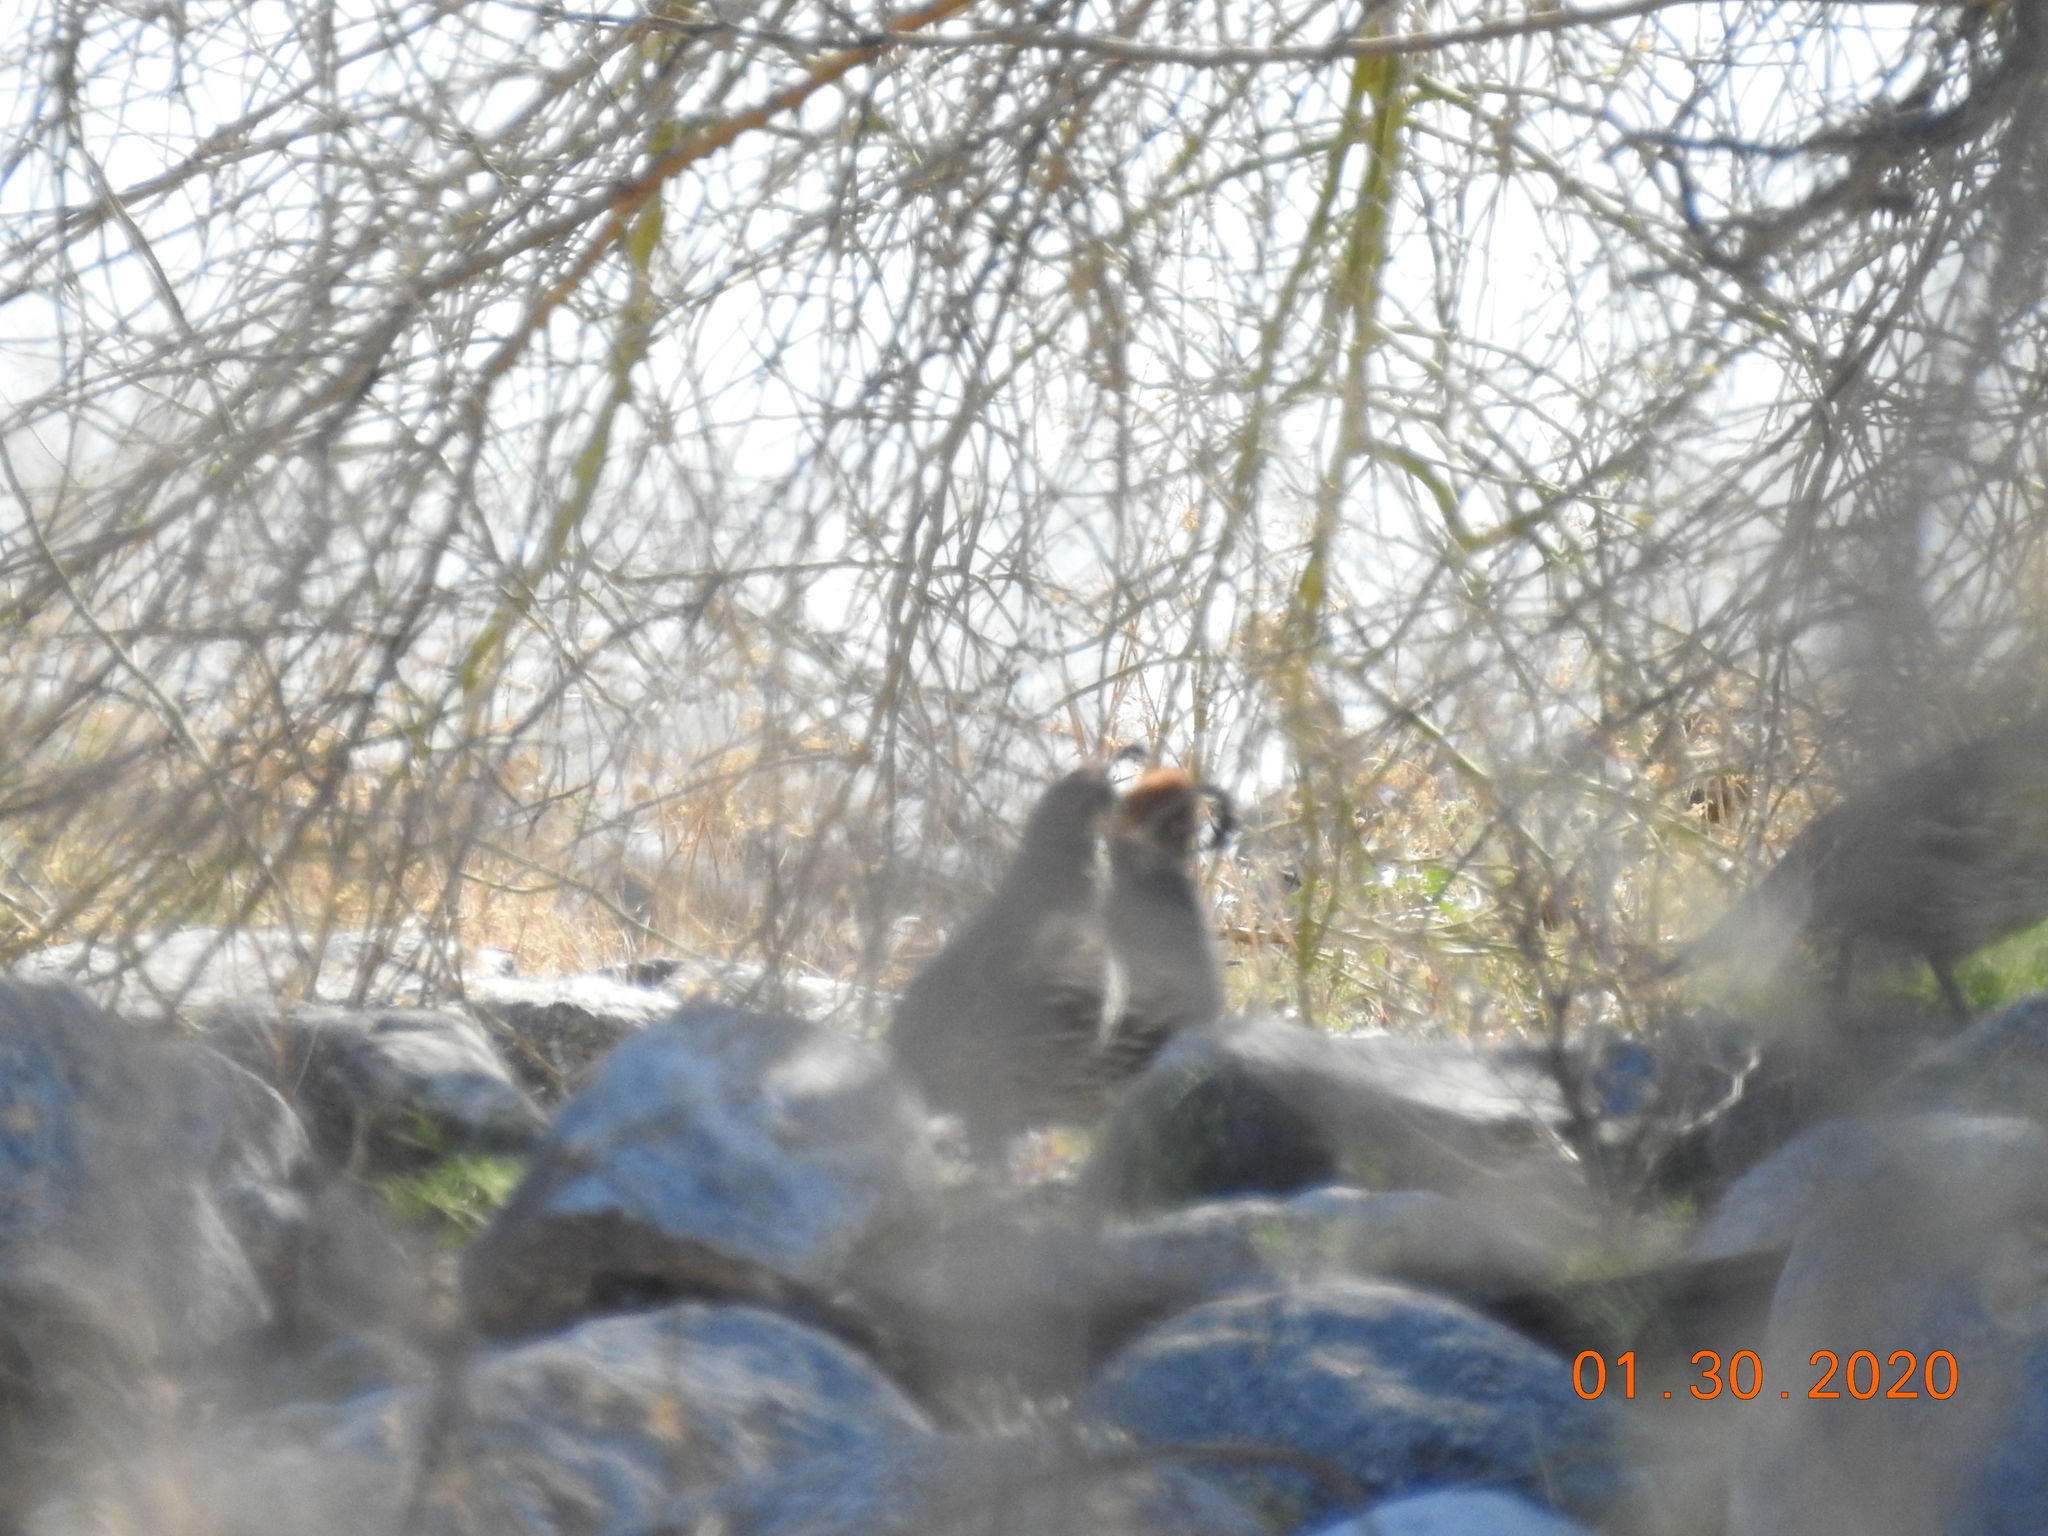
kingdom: Animalia
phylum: Chordata
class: Aves
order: Galliformes
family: Odontophoridae
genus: Callipepla
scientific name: Callipepla gambelii
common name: Gambel's quail
